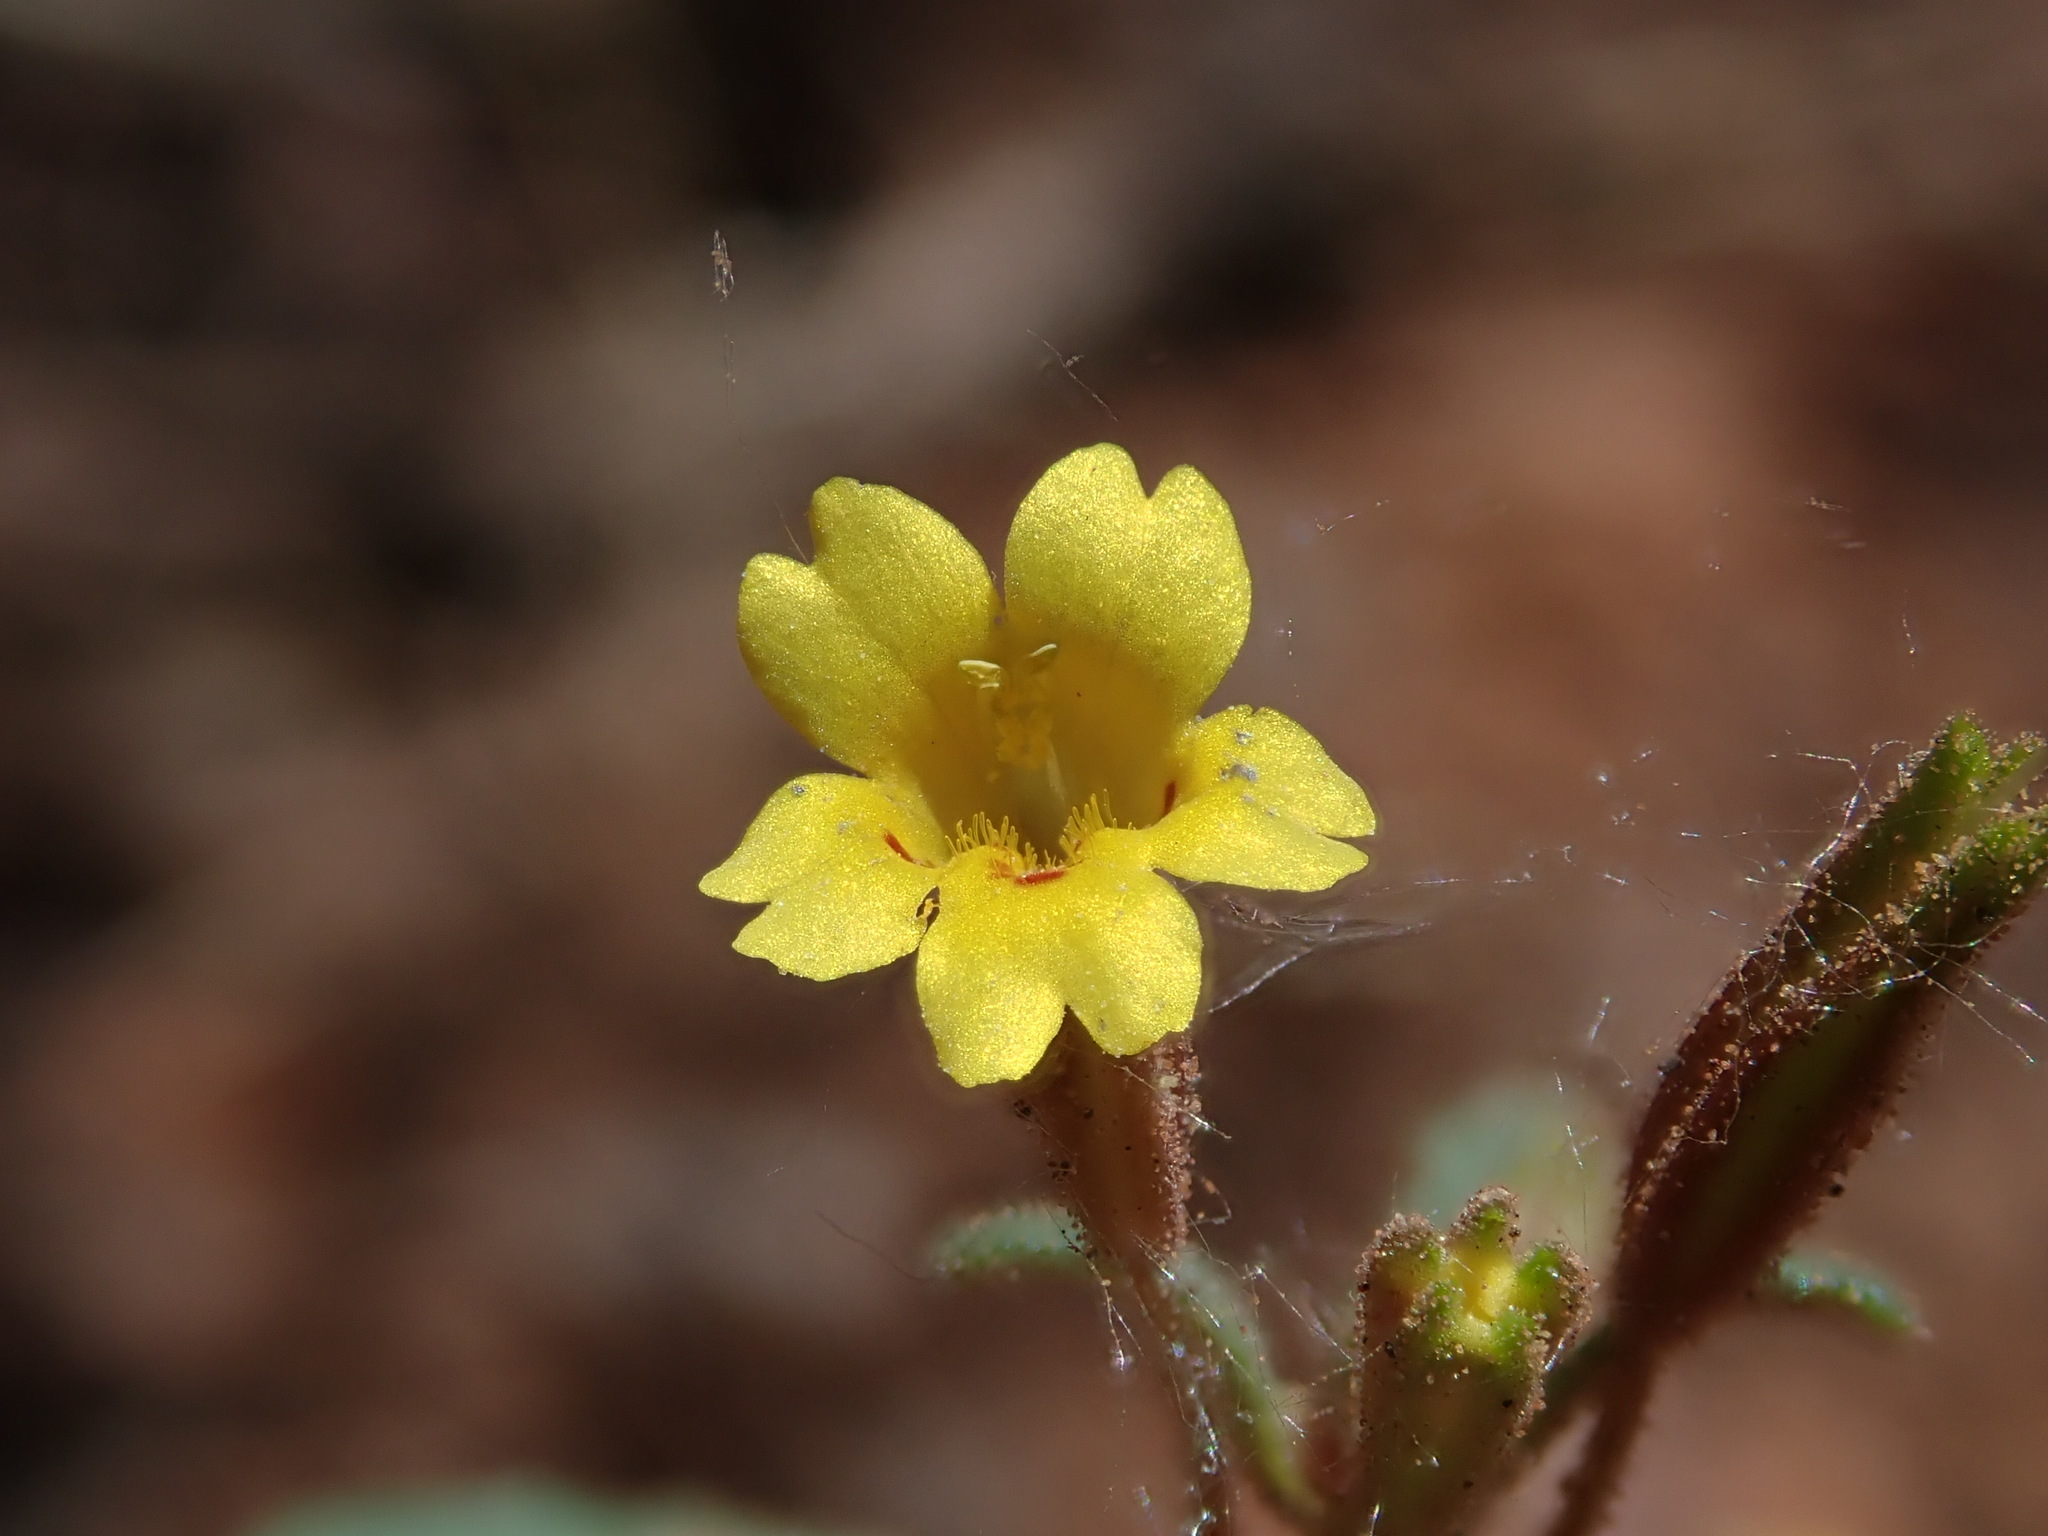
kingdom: Plantae
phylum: Tracheophyta
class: Magnoliopsida
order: Lamiales
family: Phrymaceae
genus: Erythranthe
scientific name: Erythranthe rubella
